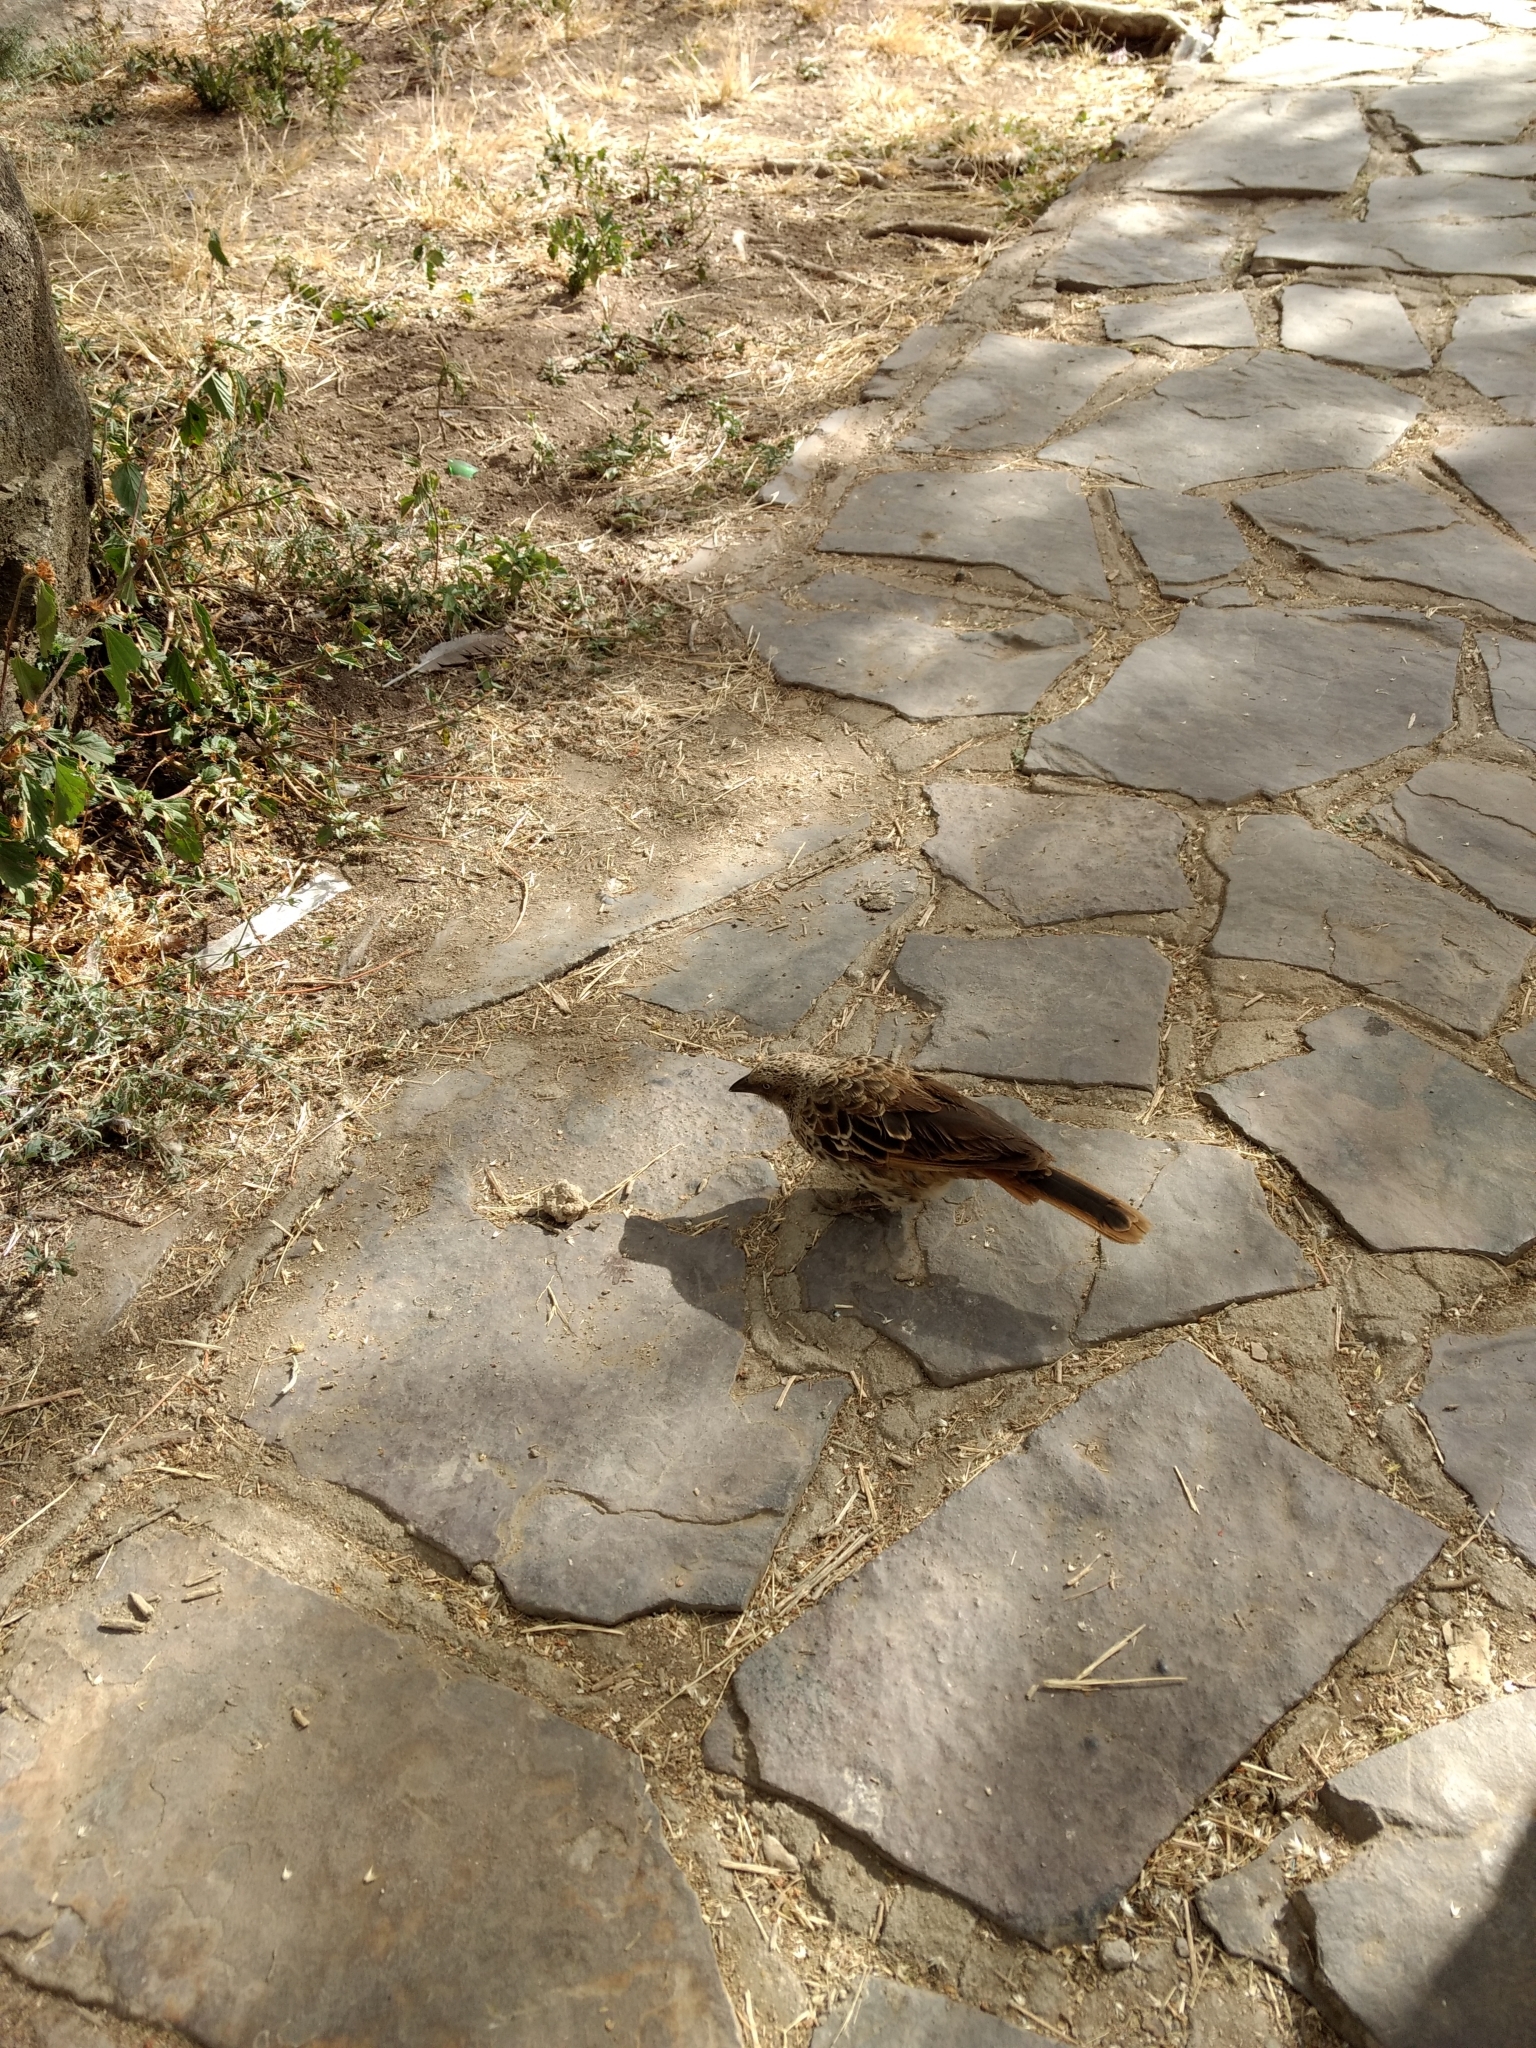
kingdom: Animalia
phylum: Chordata
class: Aves
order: Passeriformes
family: Passeridae
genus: Histurgops
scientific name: Histurgops ruficauda
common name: Rufous-tailed weaver
